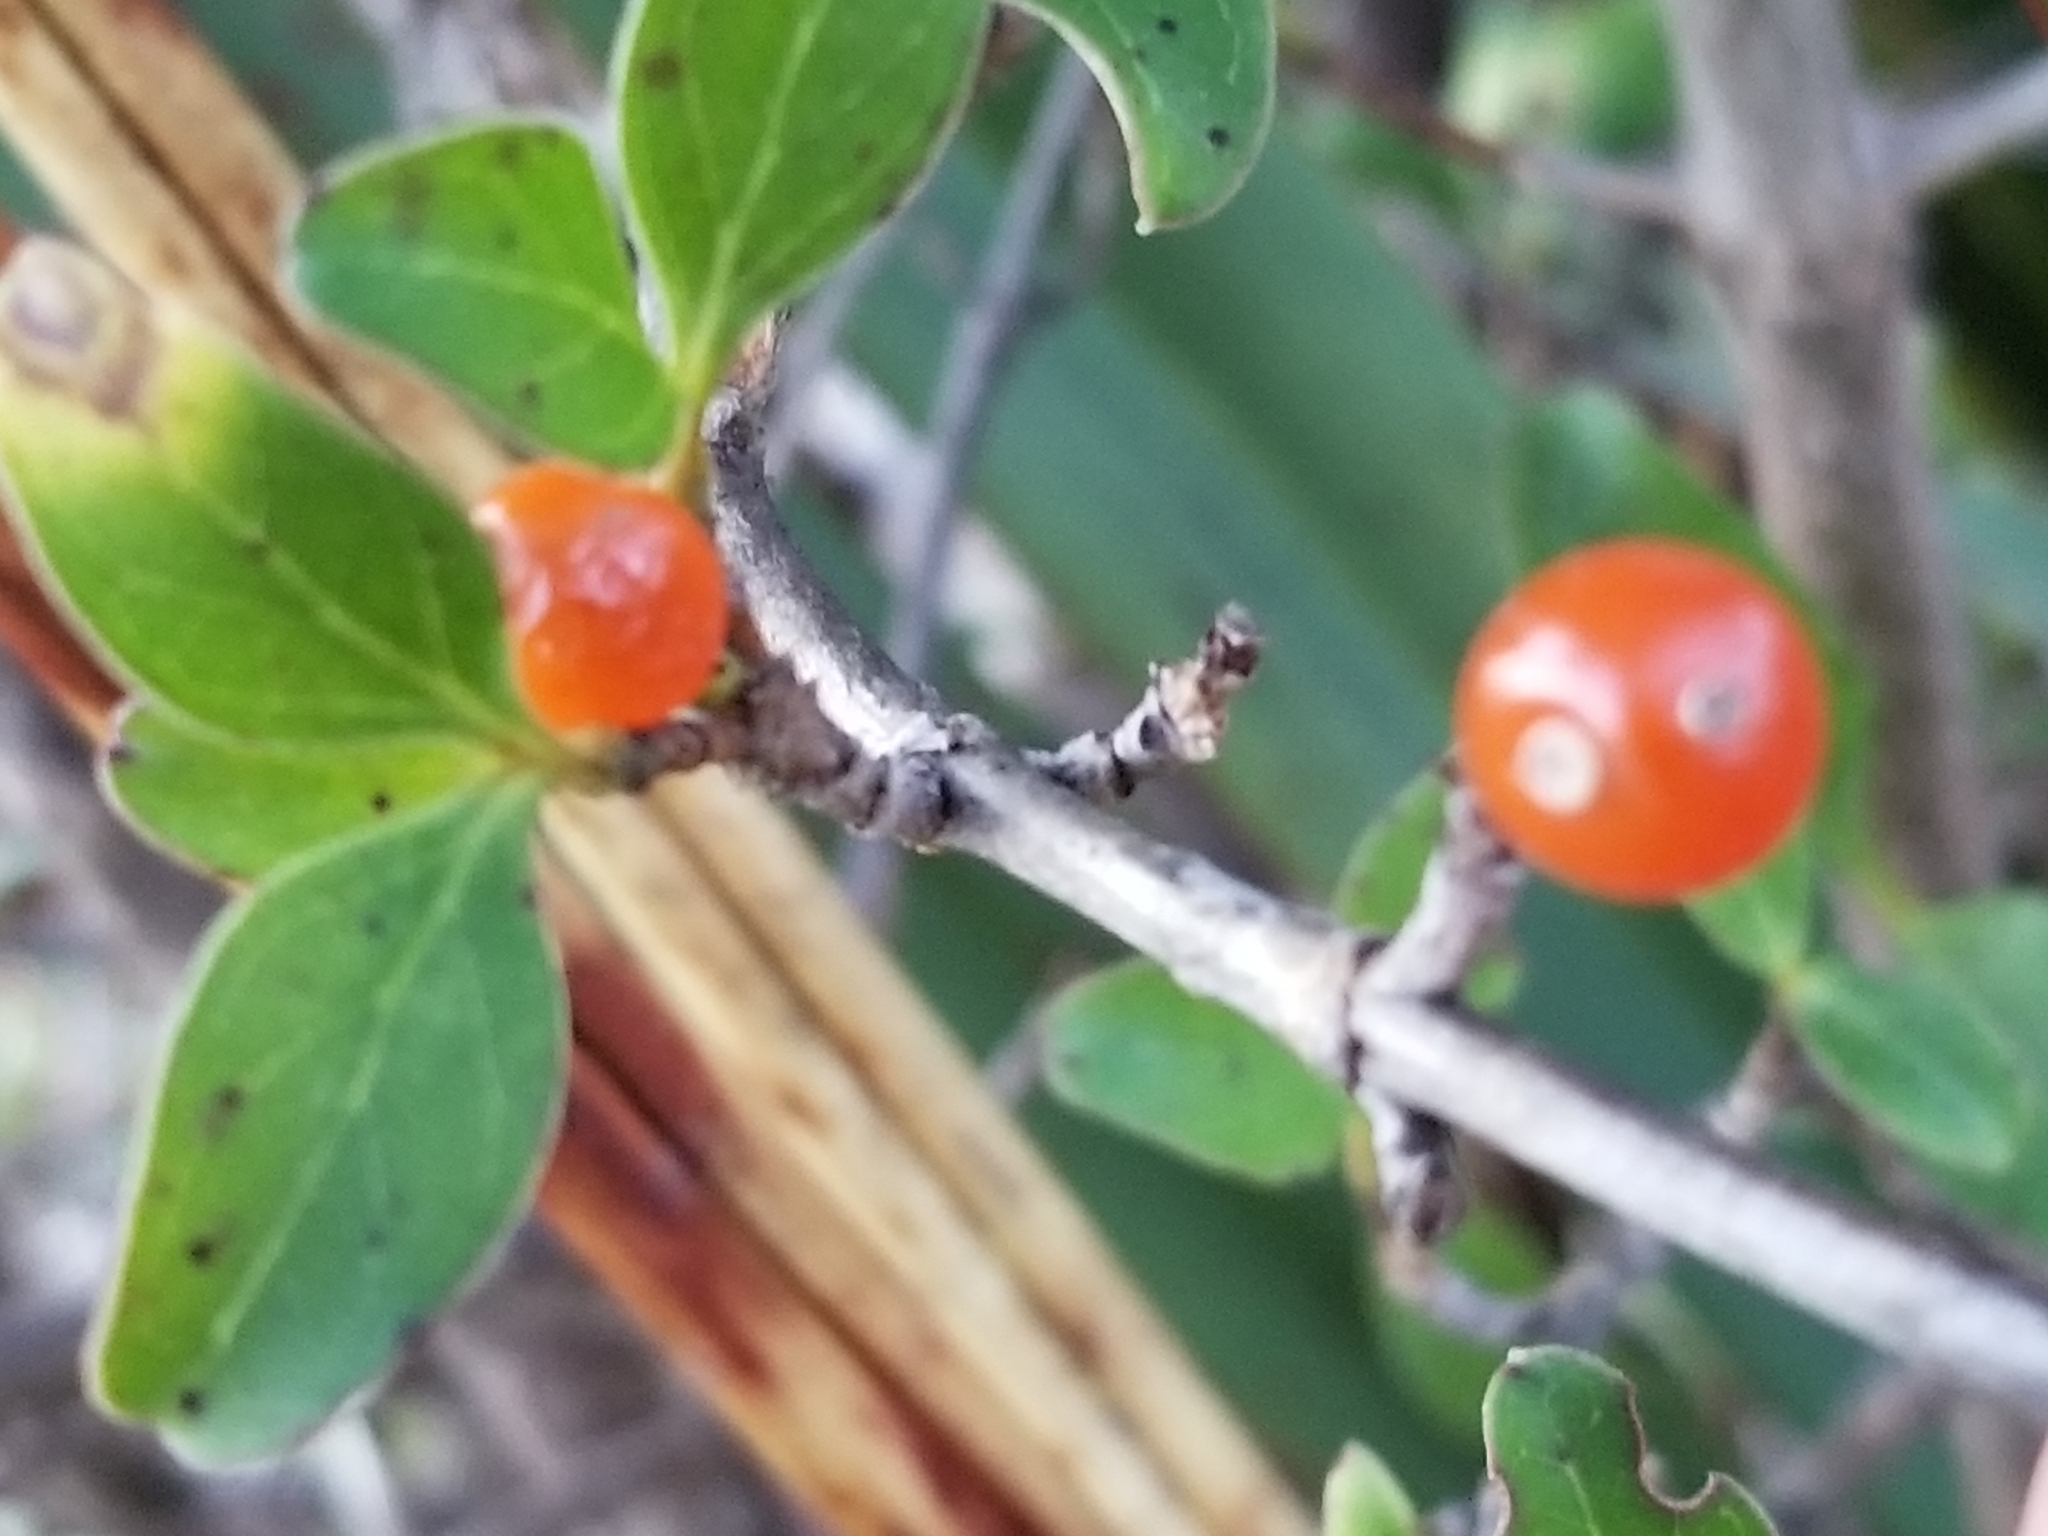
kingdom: Plantae
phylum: Tracheophyta
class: Magnoliopsida
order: Gentianales
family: Rubiaceae
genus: Coprosma
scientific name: Coprosma foetidissima
